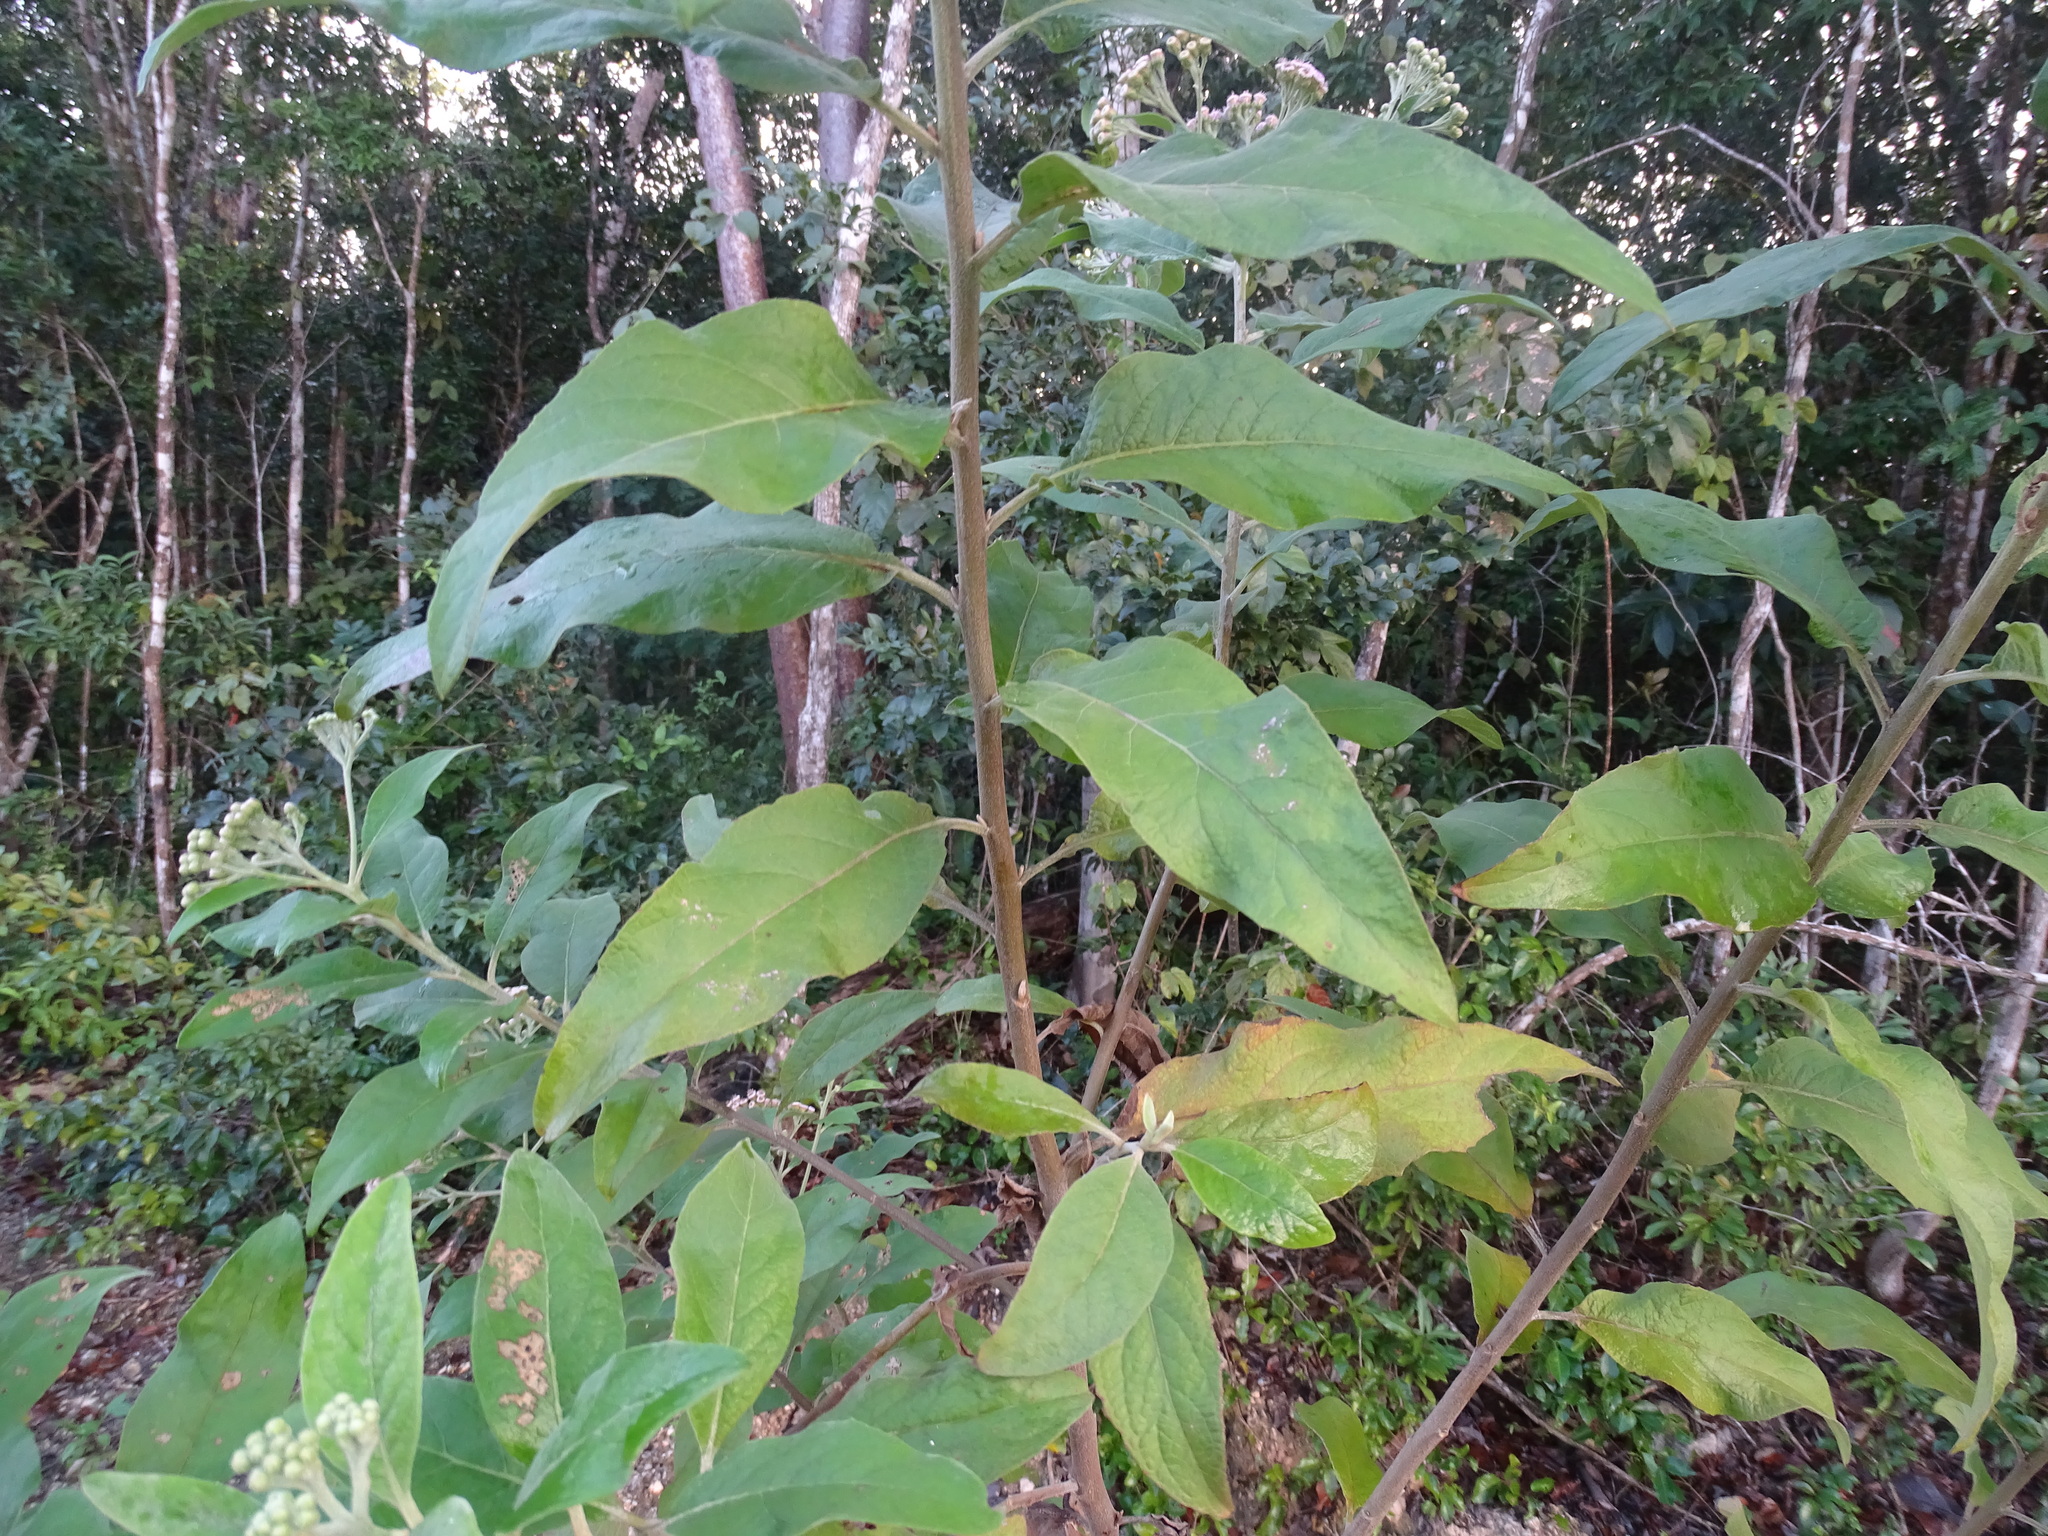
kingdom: Plantae
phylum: Tracheophyta
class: Magnoliopsida
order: Asterales
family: Asteraceae
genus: Pluchea
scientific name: Pluchea carolinensis
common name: Marsh fleabane
